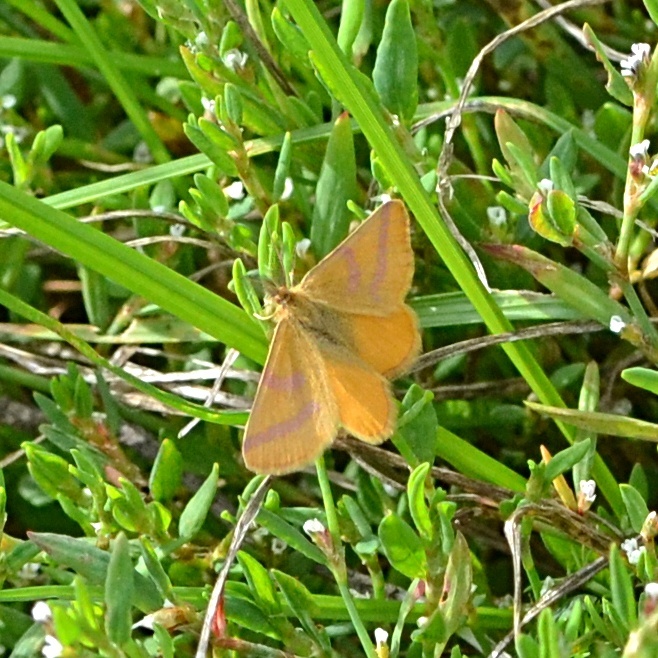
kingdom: Animalia
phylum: Arthropoda
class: Insecta
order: Lepidoptera
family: Geometridae
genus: Lythria
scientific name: Lythria purpuraria
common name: Purple-barred yellow
